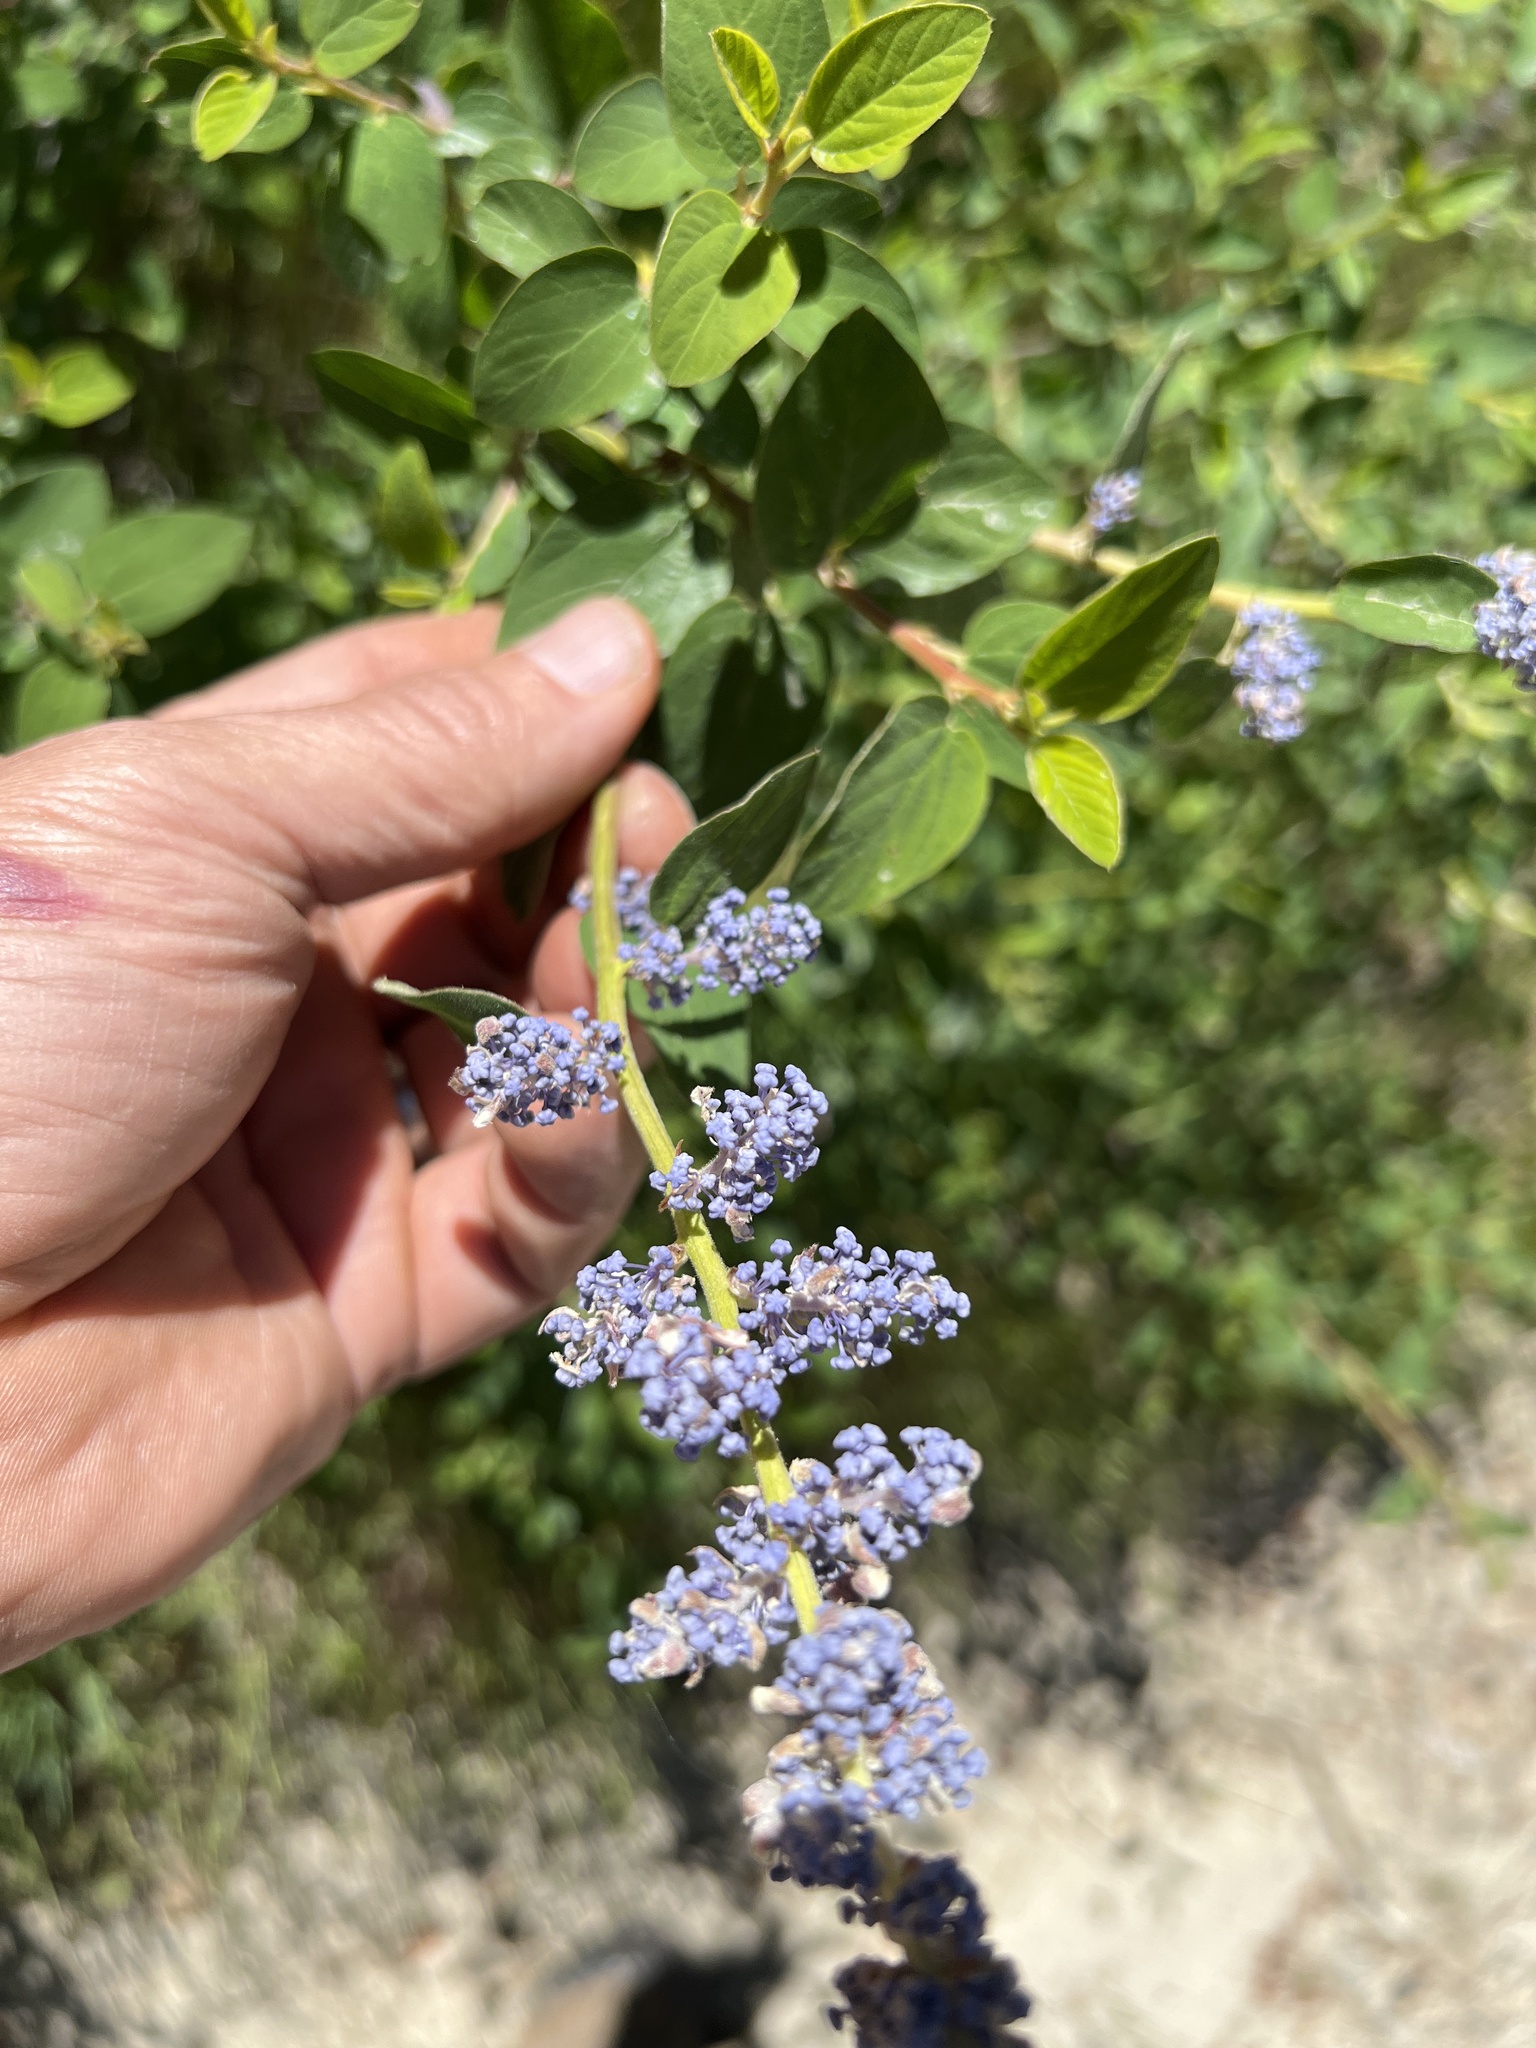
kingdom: Plantae
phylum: Tracheophyta
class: Magnoliopsida
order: Rosales
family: Rhamnaceae
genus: Ceanothus
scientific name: Ceanothus integerrimus
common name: Deerbrush ceanothus
